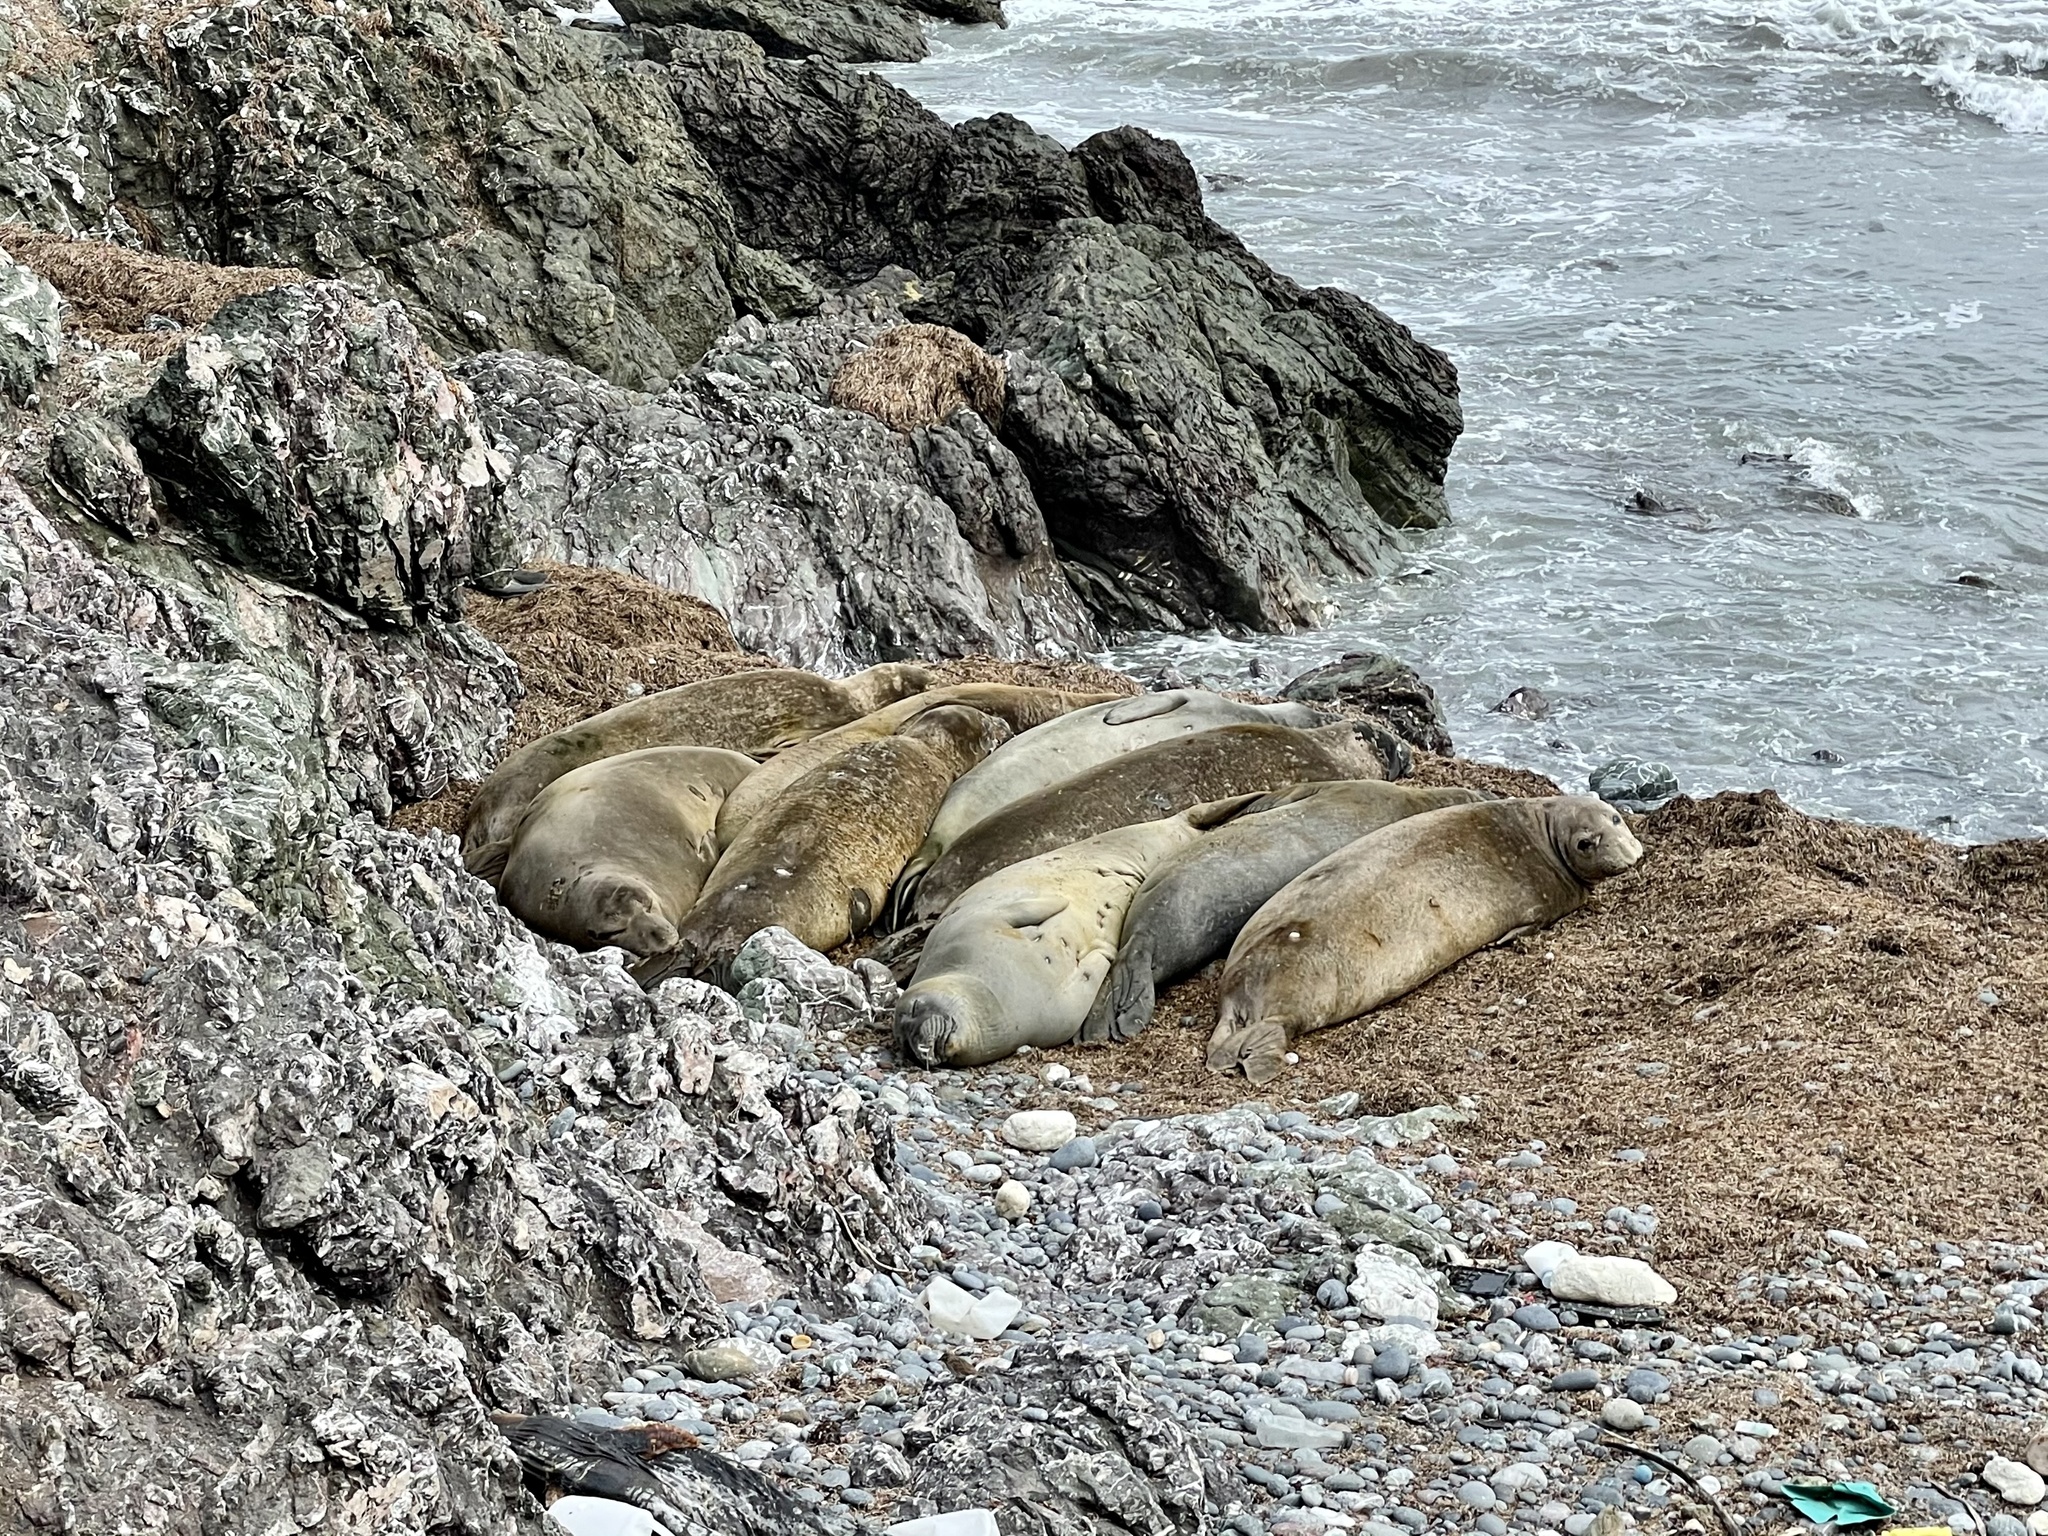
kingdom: Animalia
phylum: Chordata
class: Mammalia
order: Carnivora
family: Phocidae
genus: Mirounga
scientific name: Mirounga angustirostris
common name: Northern elephant seal
